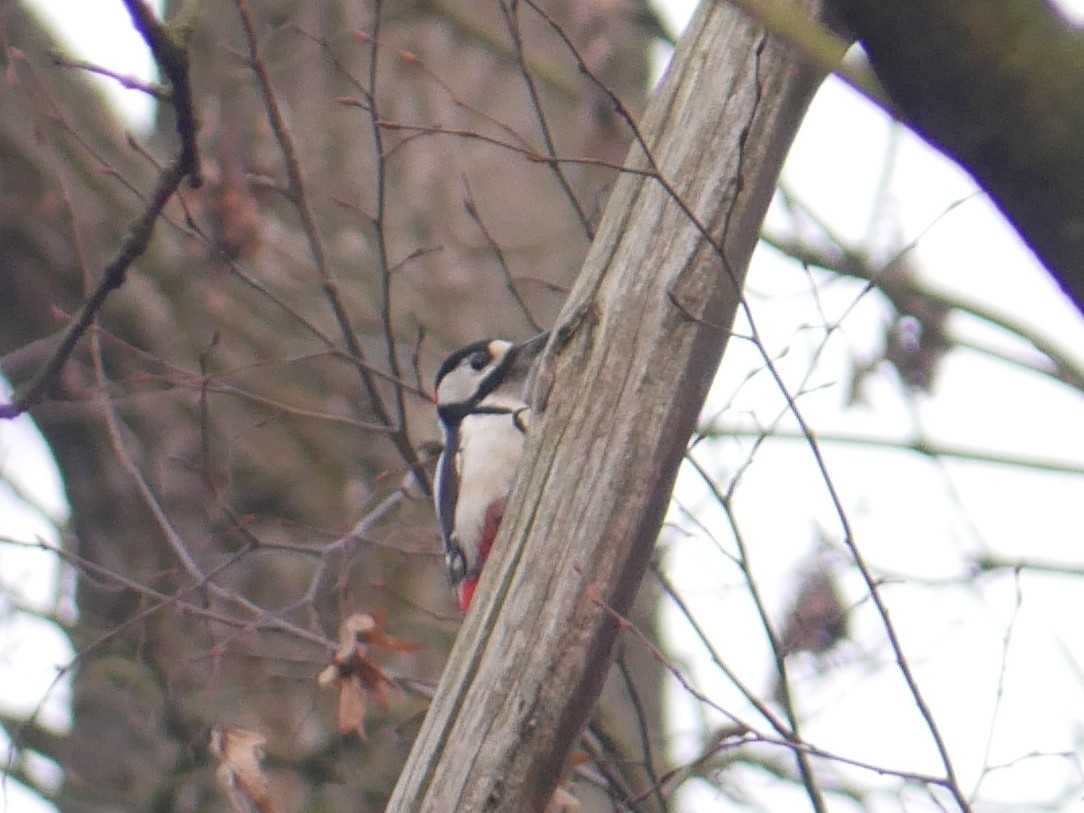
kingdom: Animalia
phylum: Chordata
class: Aves
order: Piciformes
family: Picidae
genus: Dendrocopos
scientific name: Dendrocopos major
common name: Great spotted woodpecker
